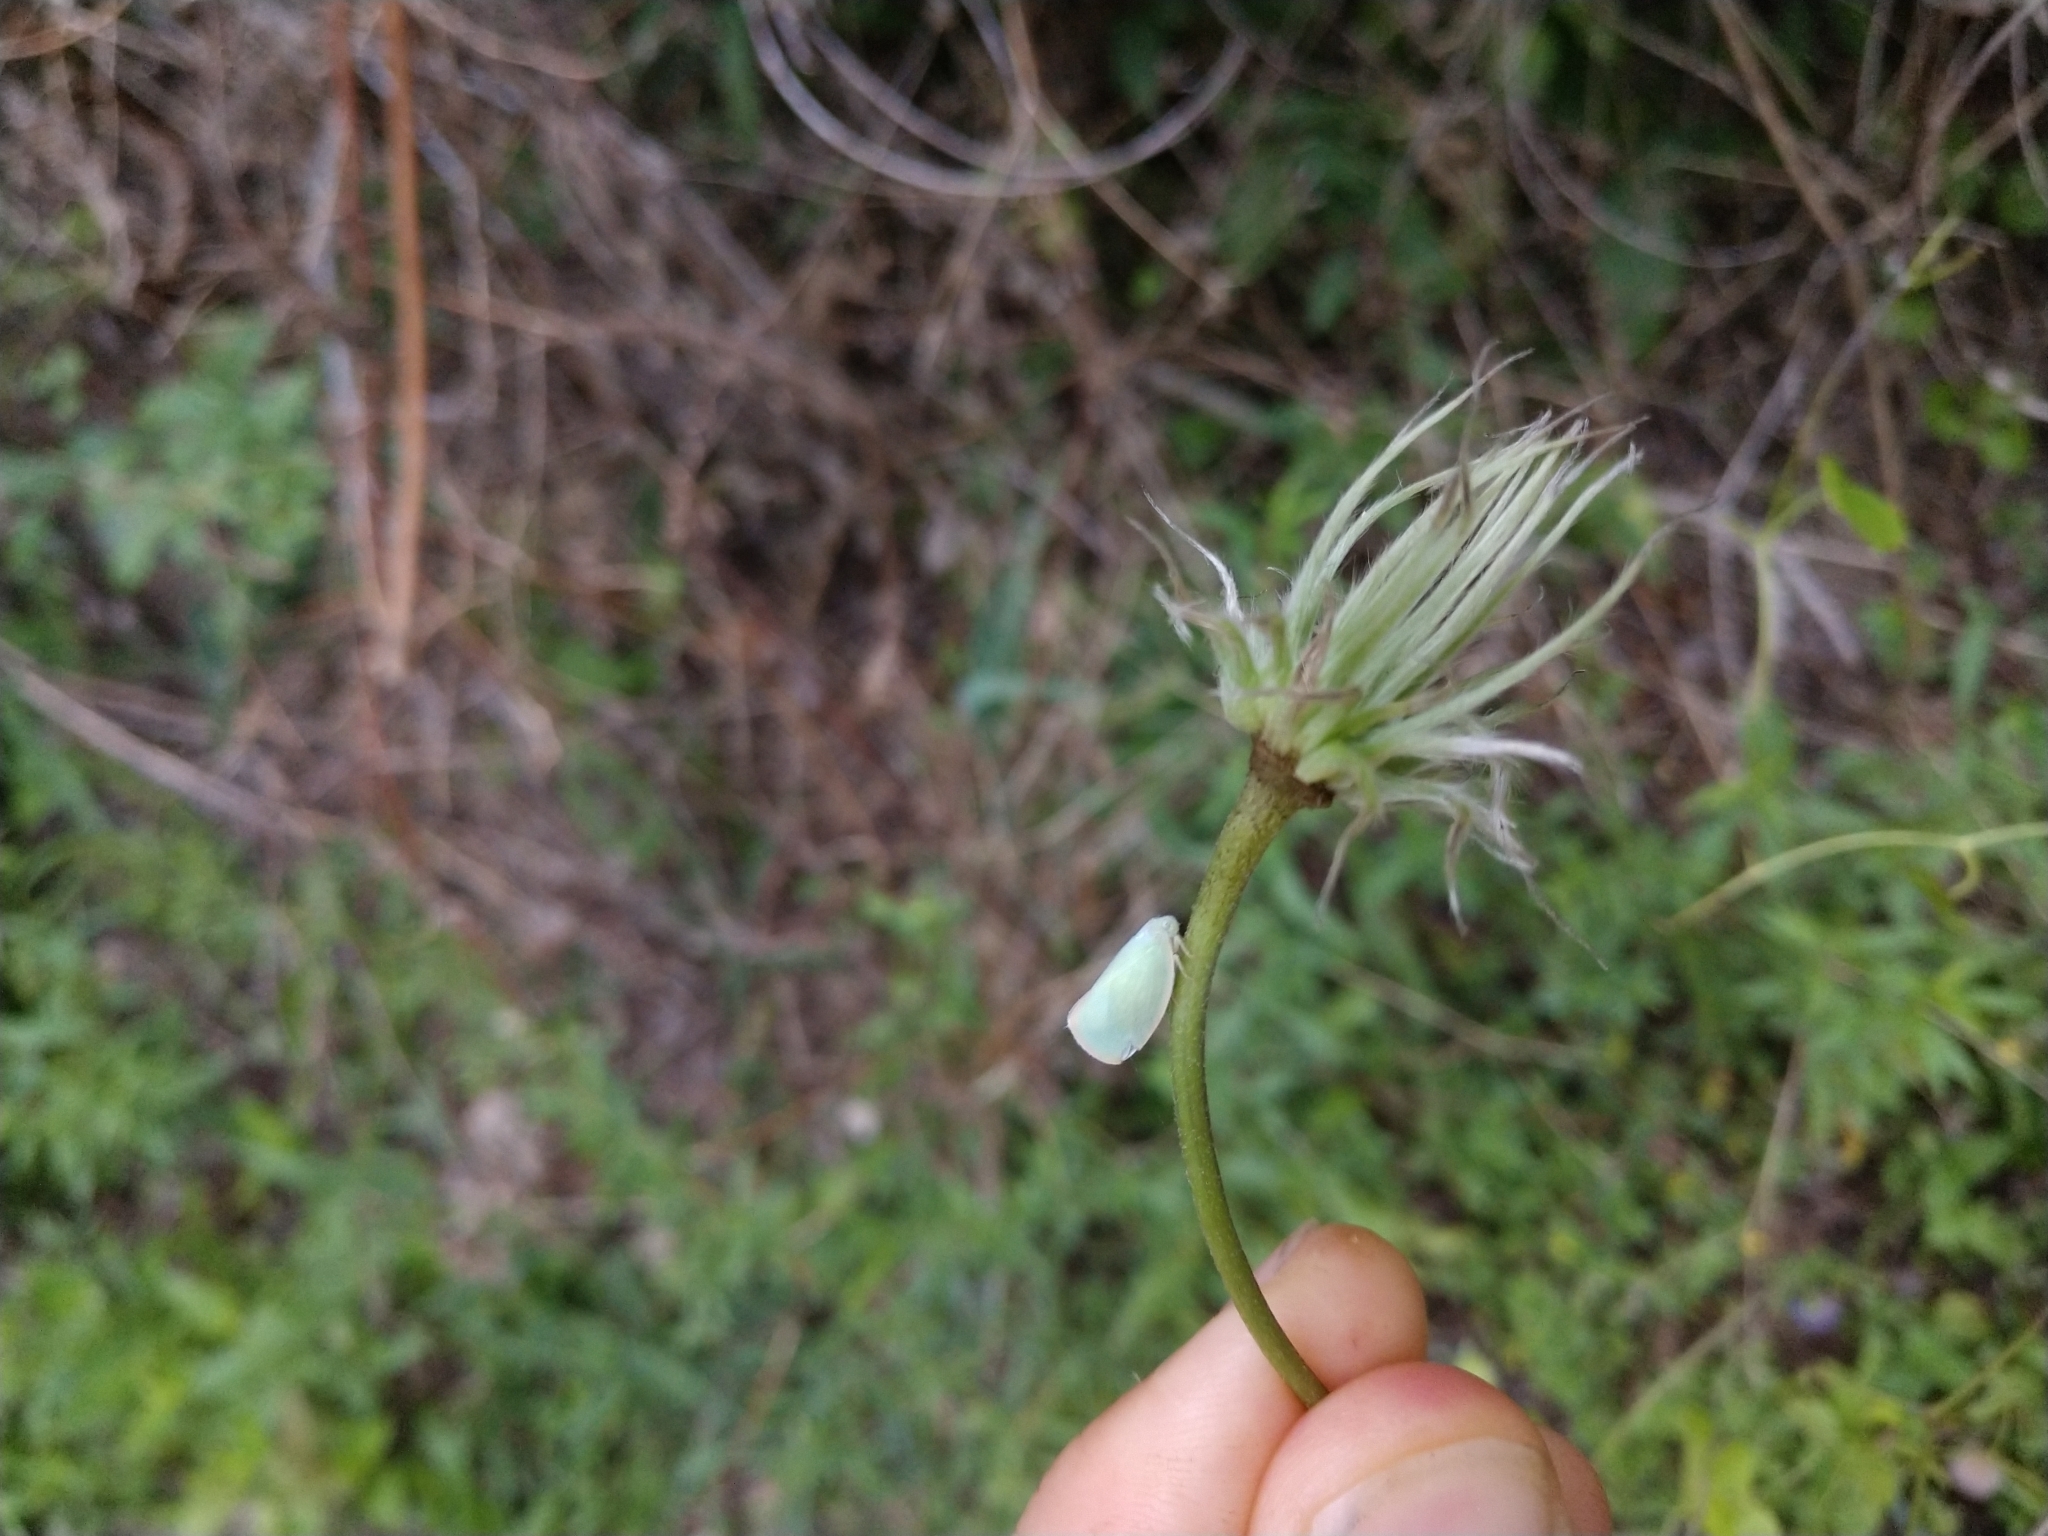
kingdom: Animalia
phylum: Arthropoda
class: Insecta
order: Hemiptera
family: Flatidae
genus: Ormenoides
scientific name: Ormenoides venusta
